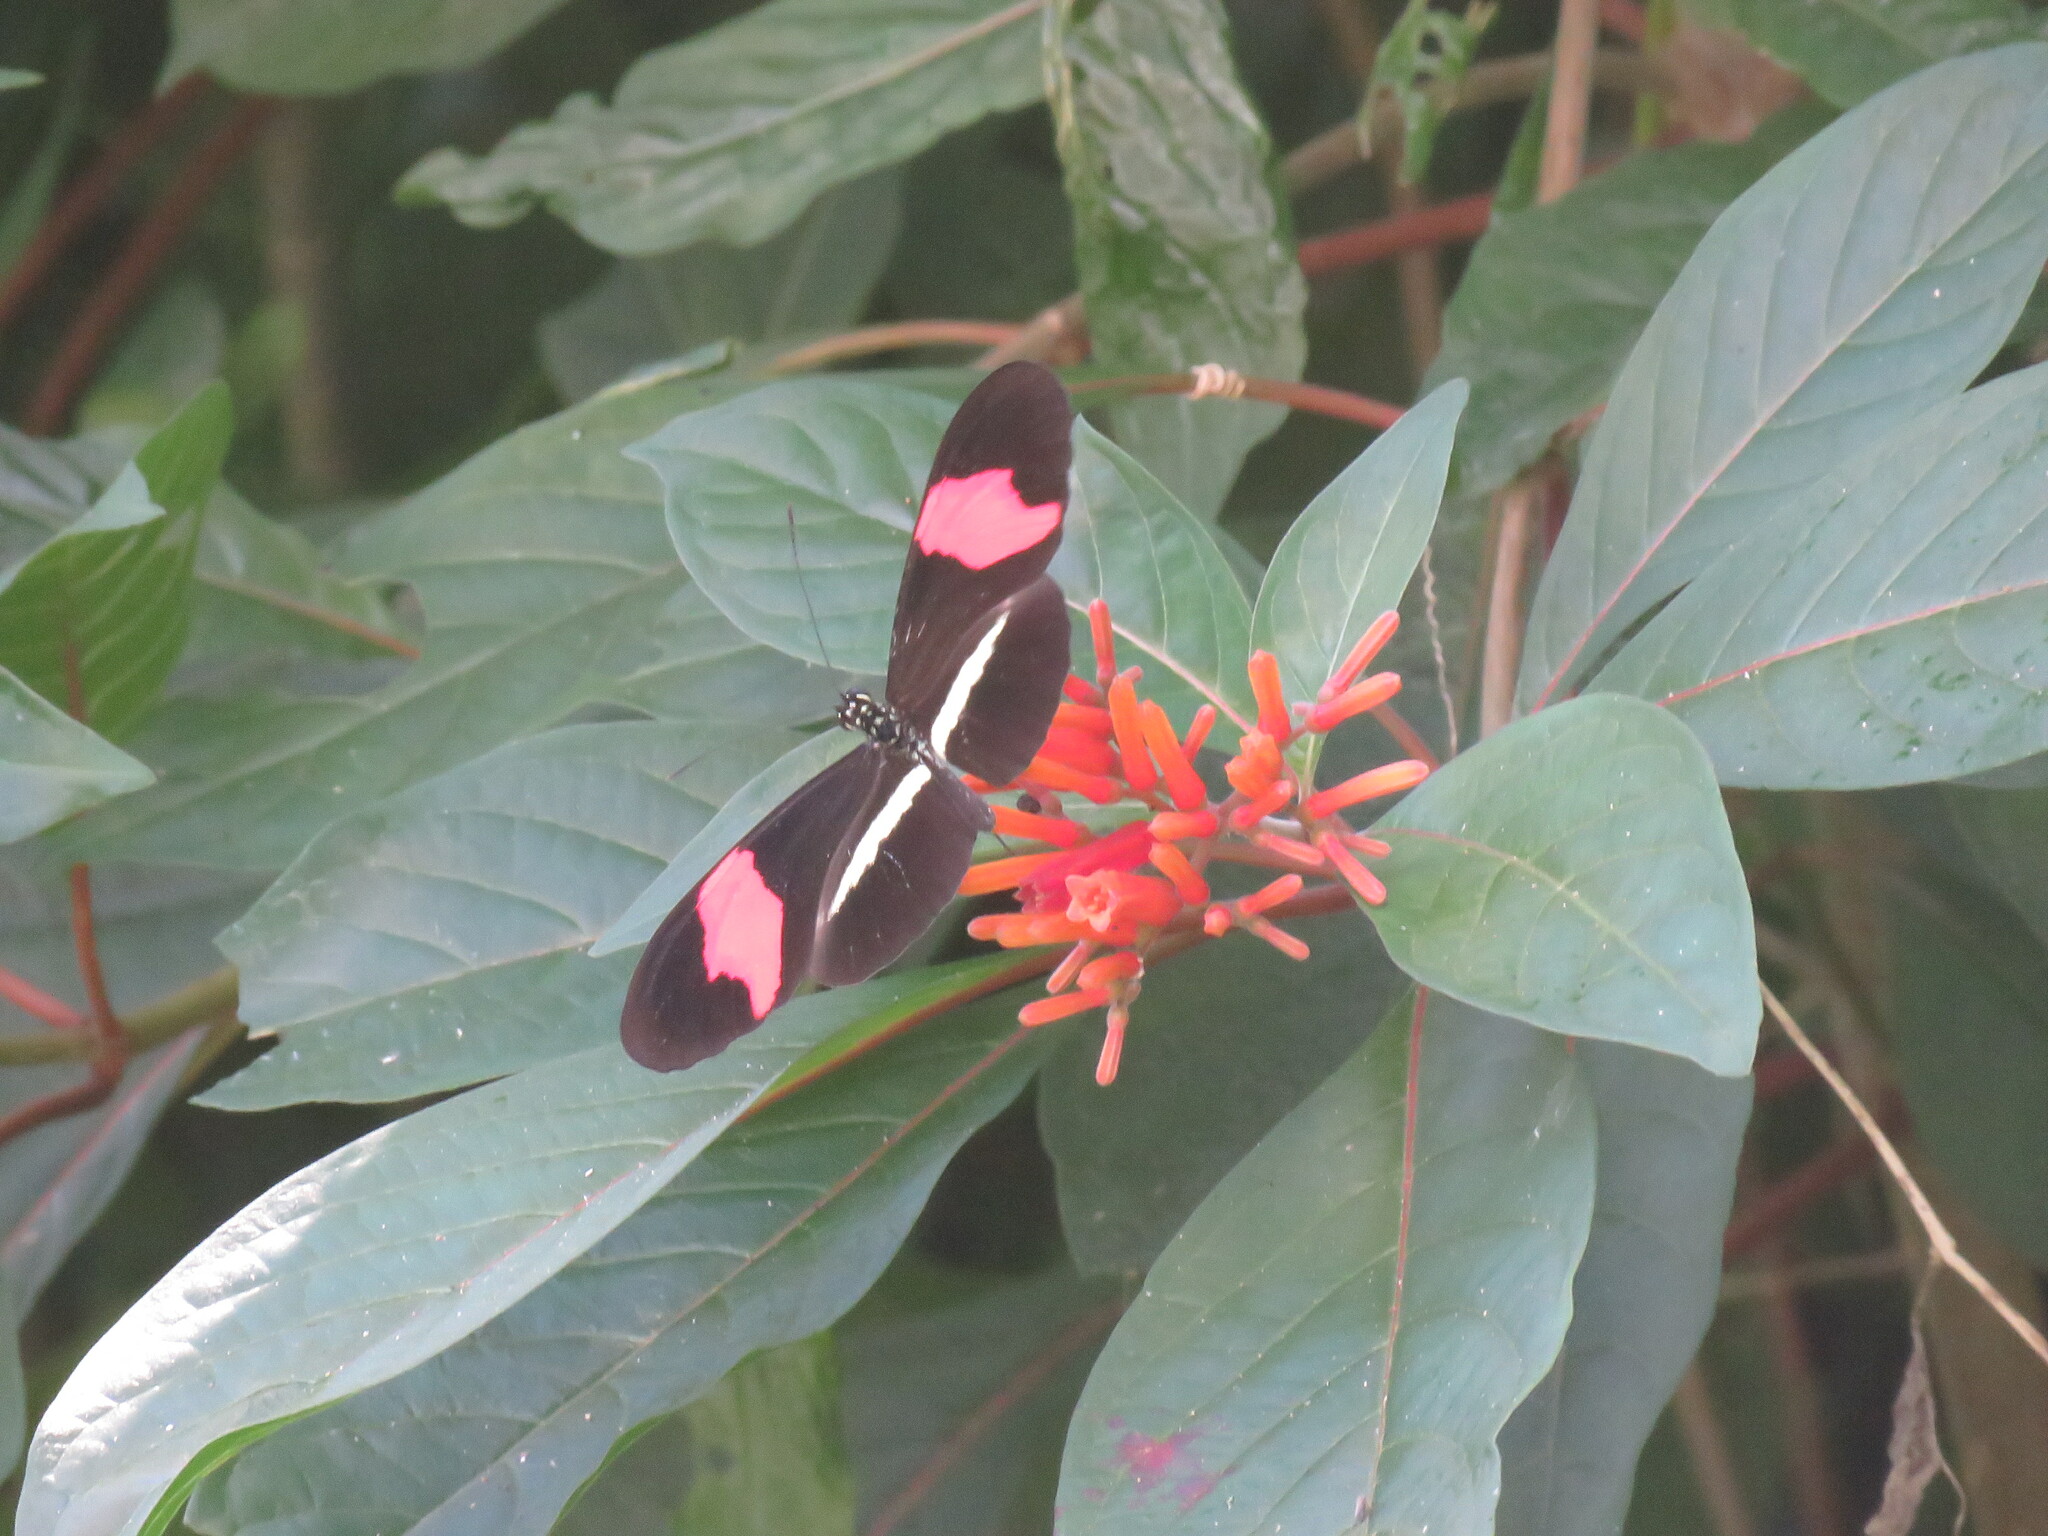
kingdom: Animalia
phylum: Arthropoda
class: Insecta
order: Lepidoptera
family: Nymphalidae
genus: Tirumala
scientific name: Tirumala petiverana
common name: Blue monarch
